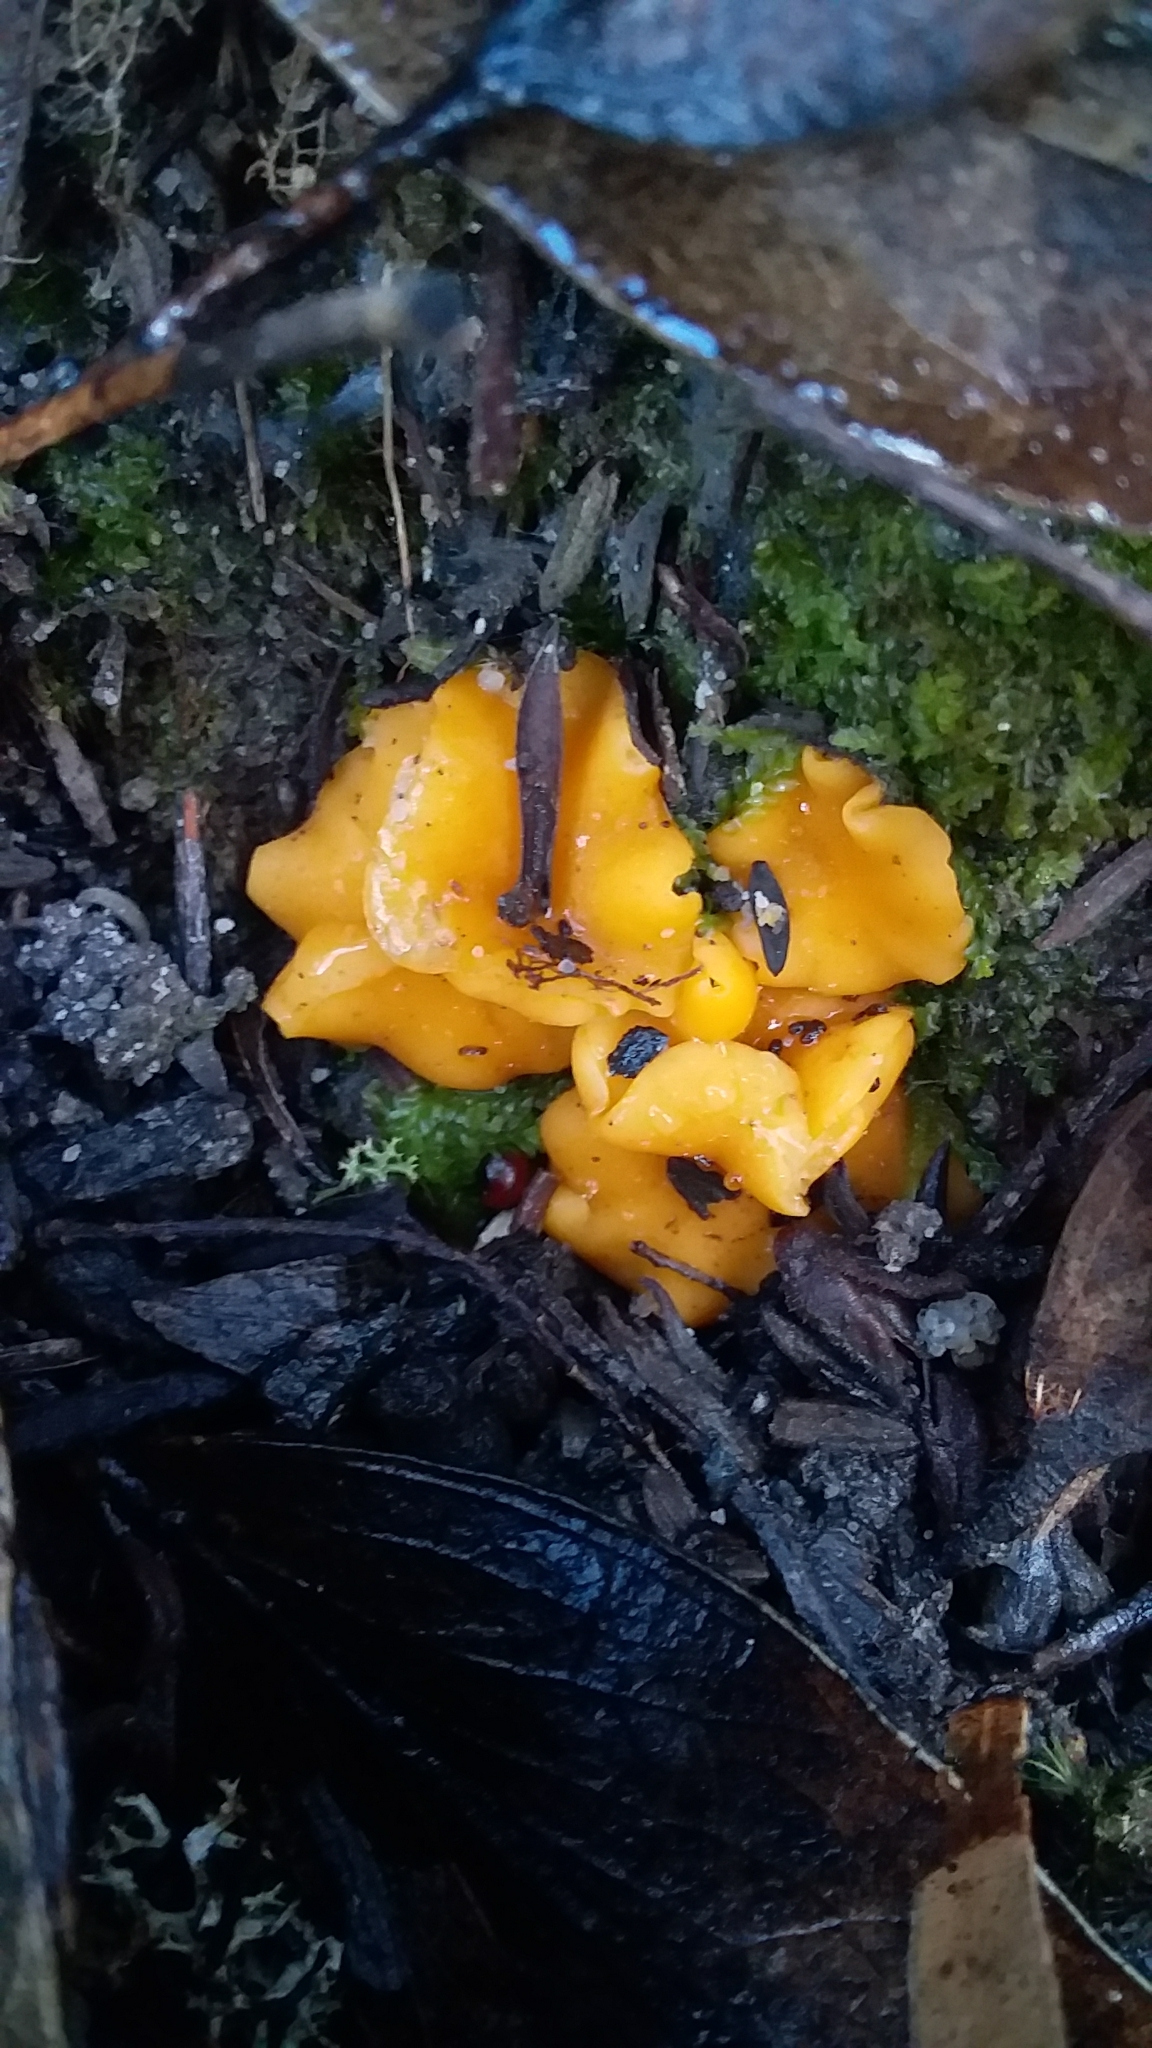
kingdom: Fungi
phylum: Ascomycota
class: Leotiomycetes
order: Helotiales
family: Helotiaceae
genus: Phaeohelotium
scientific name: Phaeohelotium baileyanum
